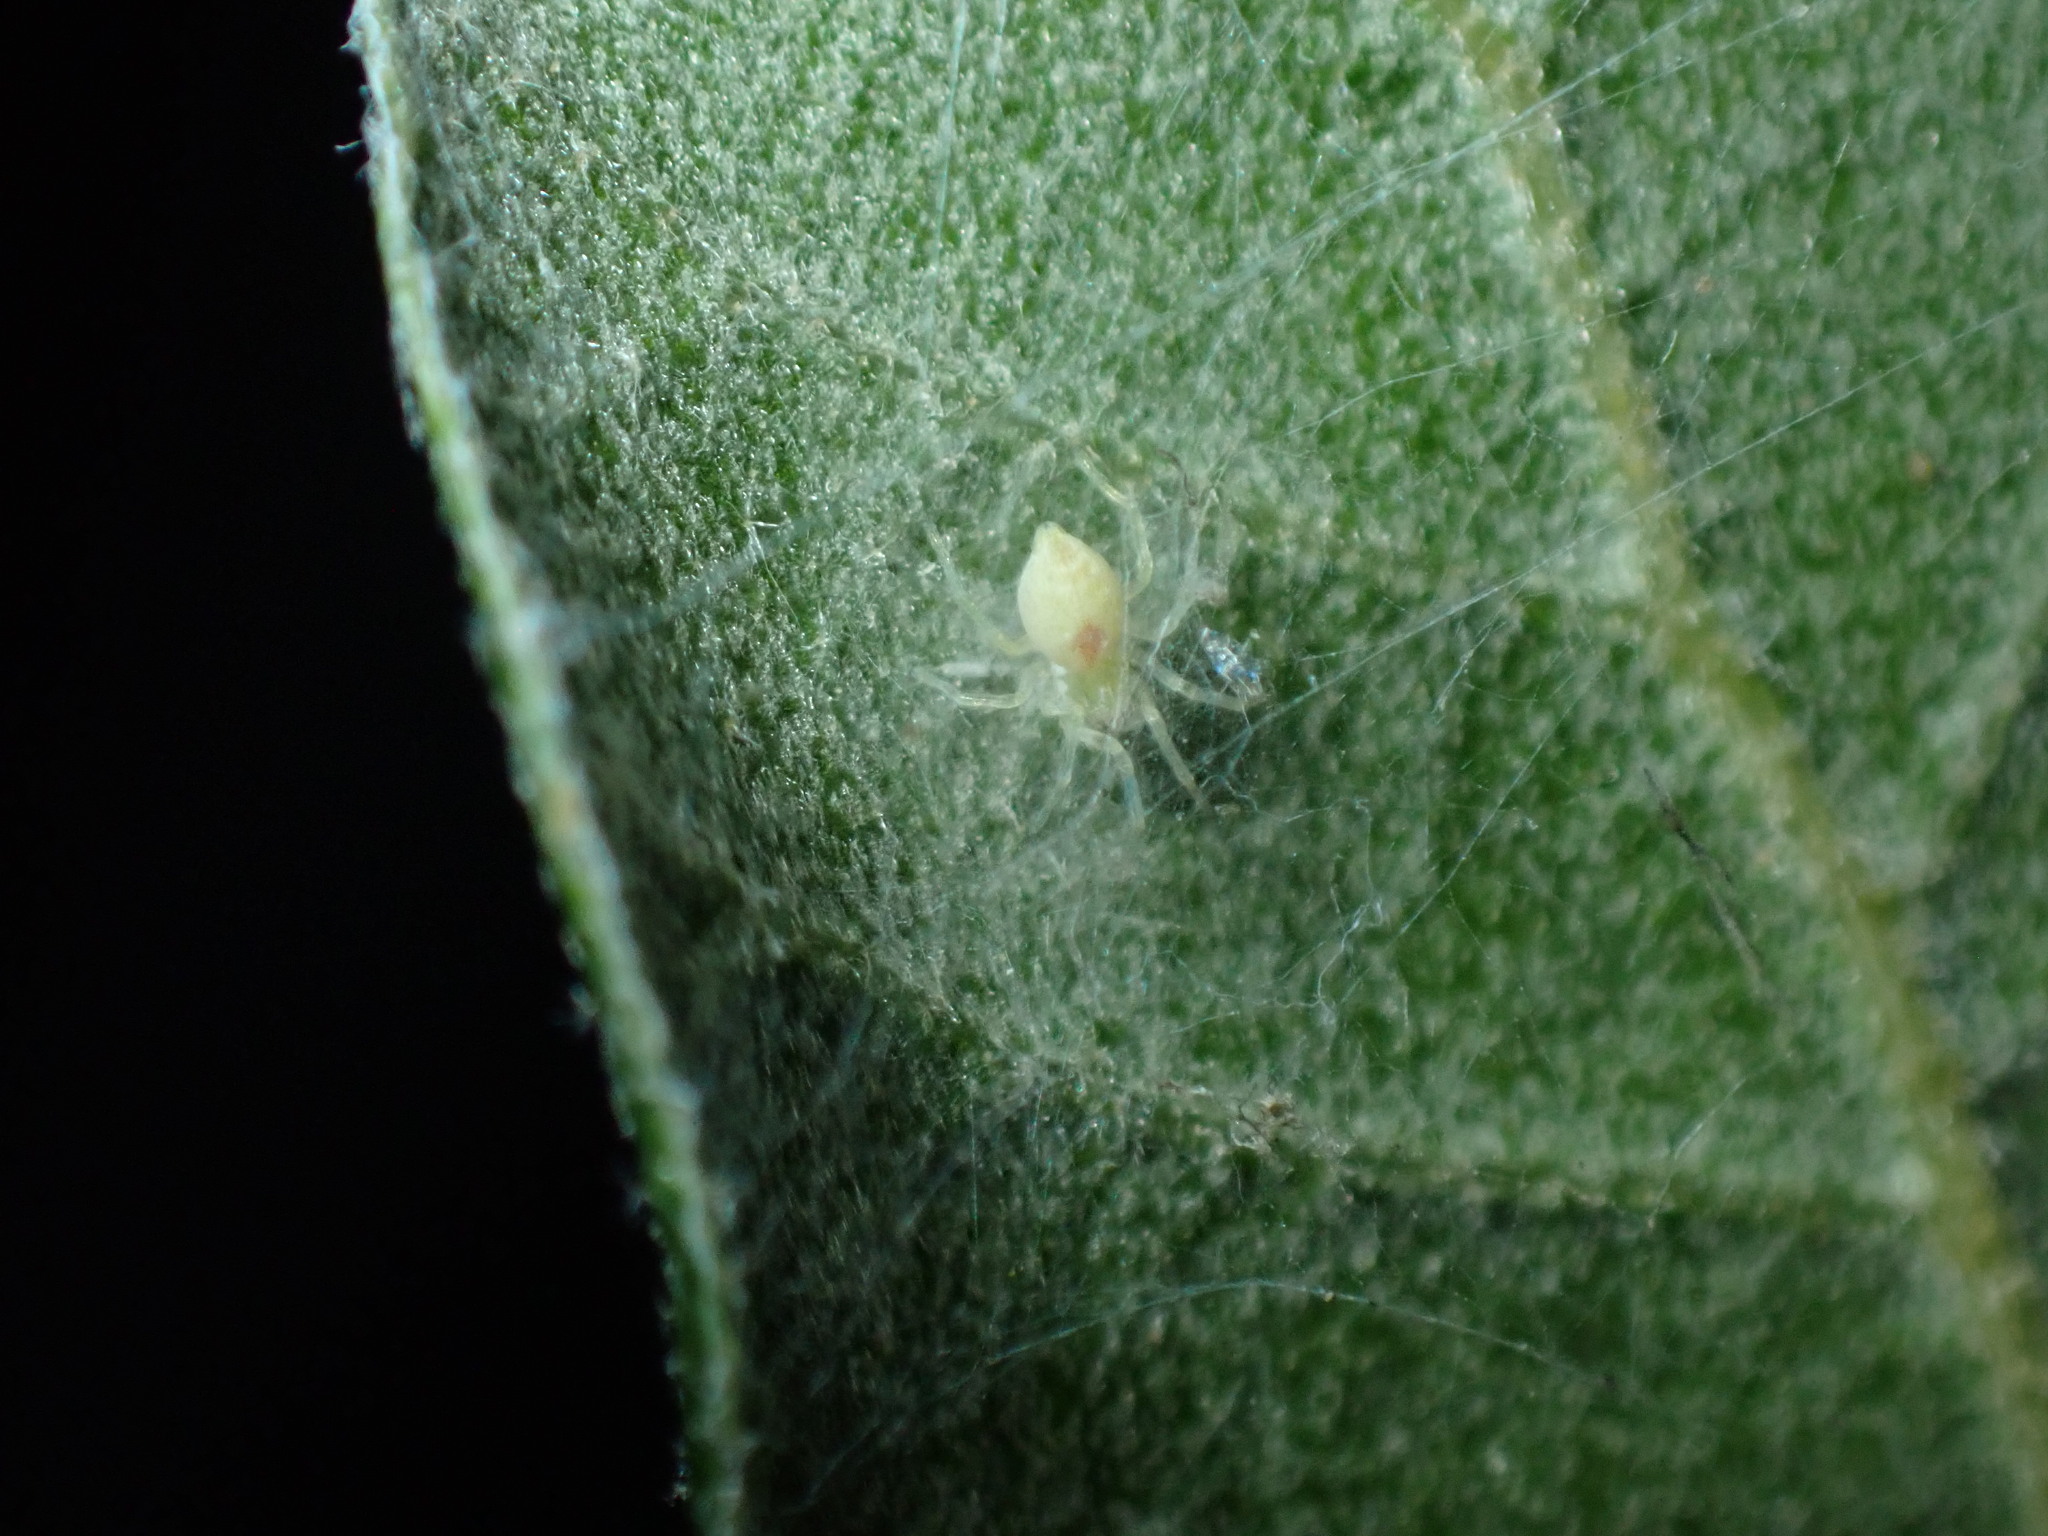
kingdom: Animalia
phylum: Arthropoda
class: Arachnida
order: Araneae
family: Dictynidae
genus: Nigma
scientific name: Nigma puella
